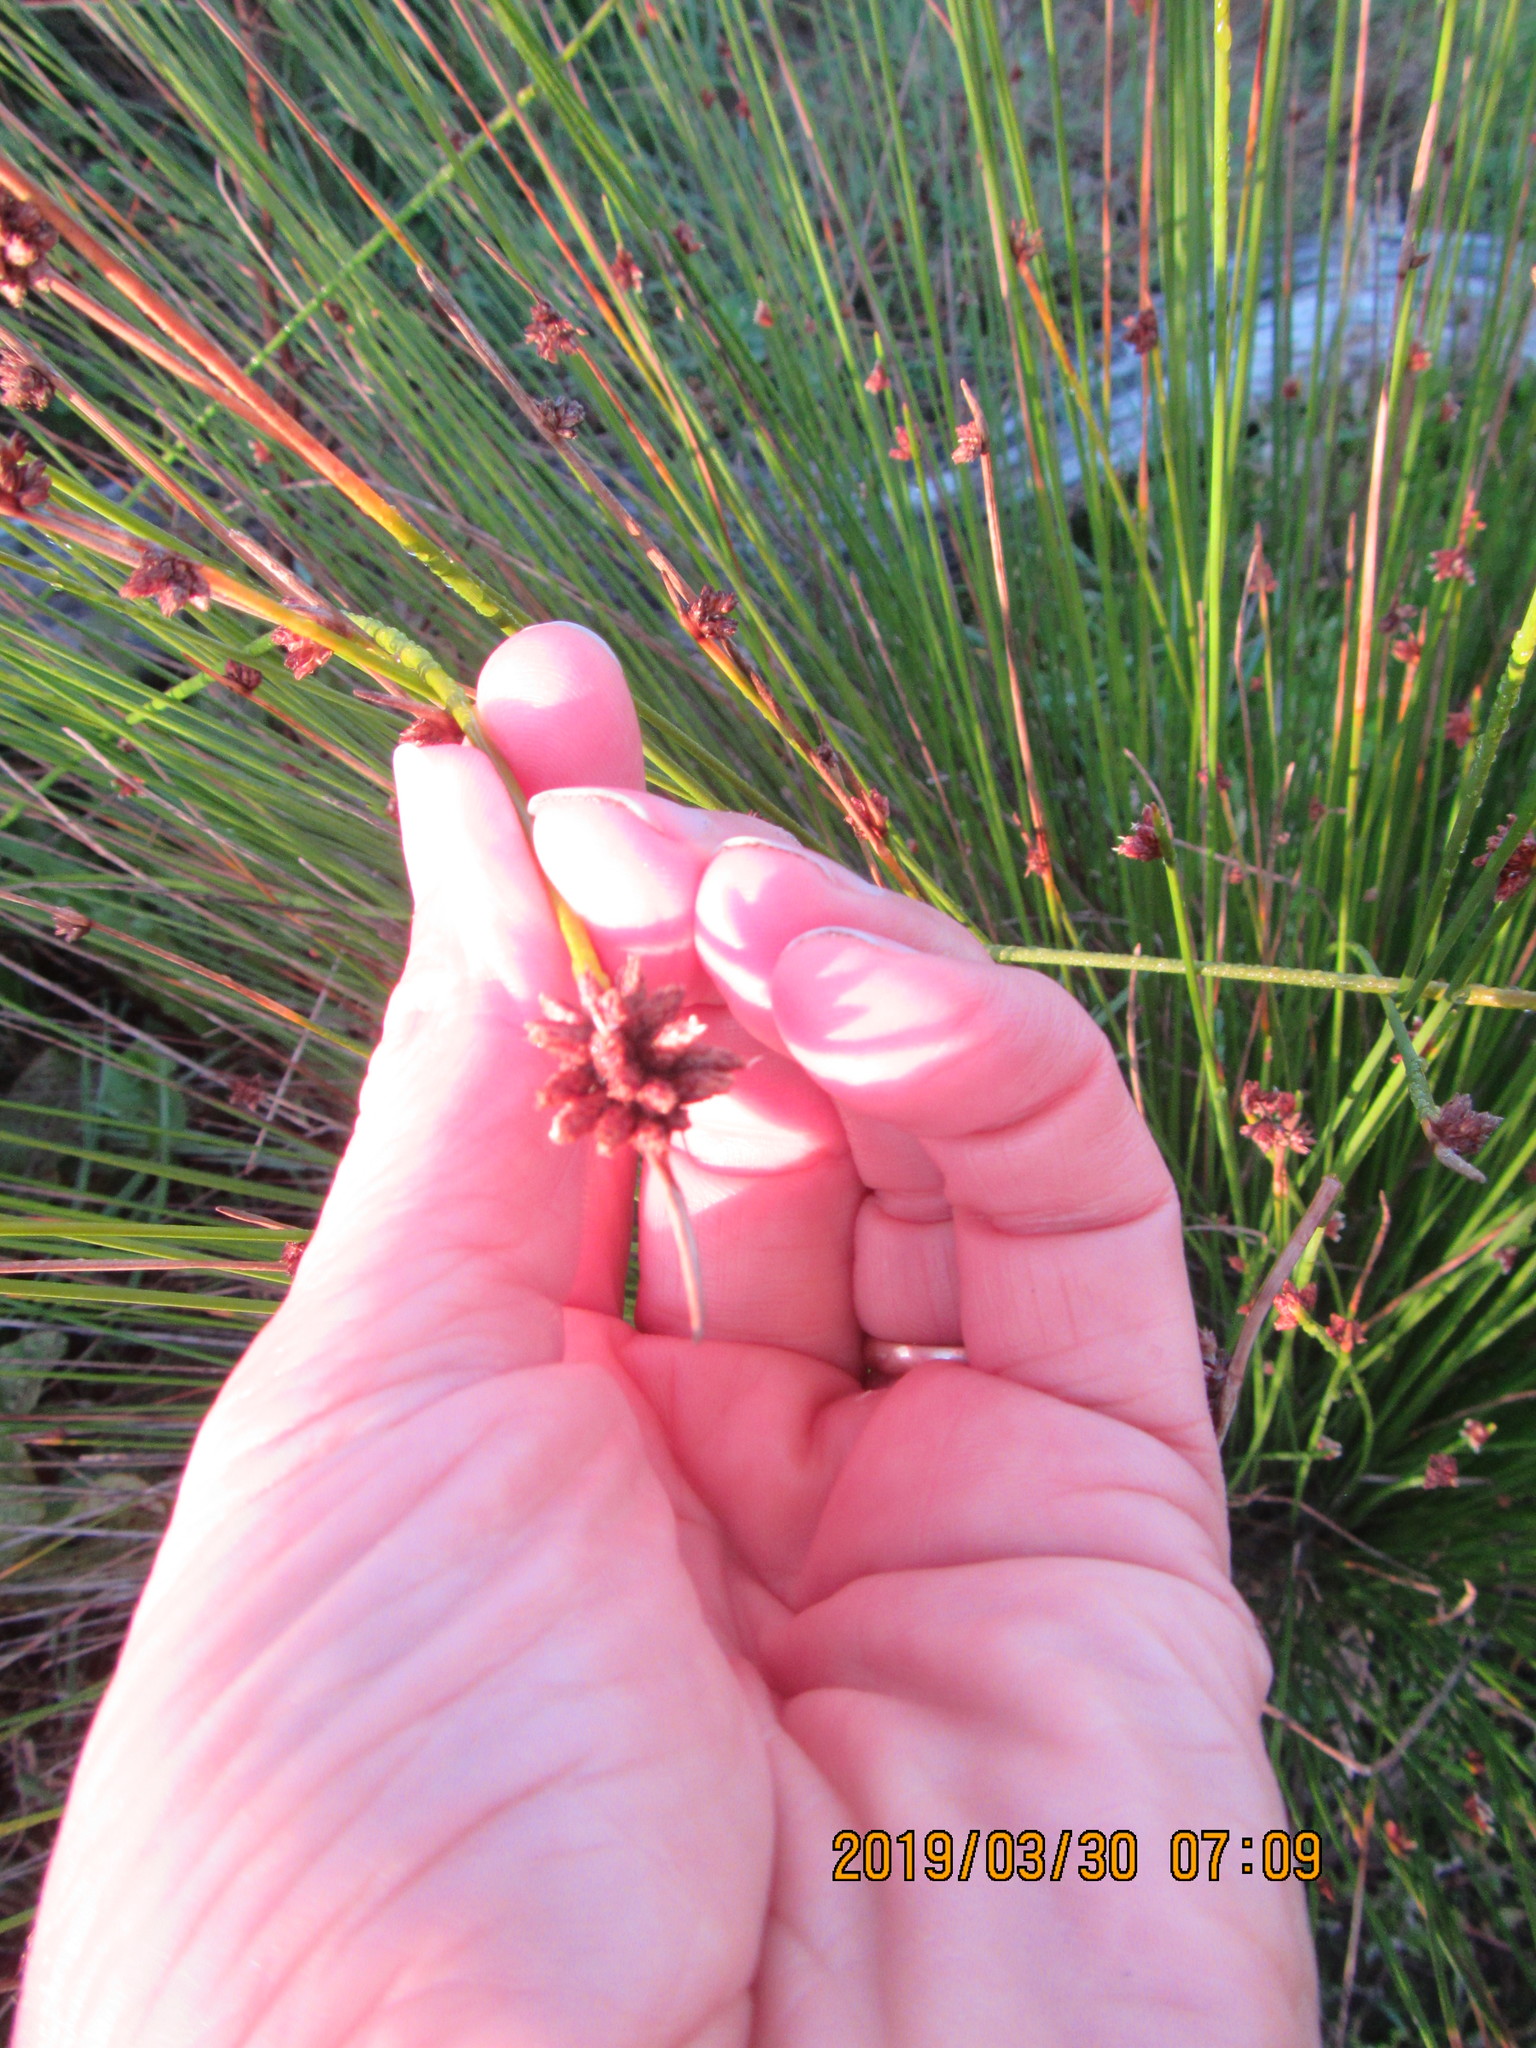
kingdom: Plantae
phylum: Tracheophyta
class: Liliopsida
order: Poales
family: Cyperaceae
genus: Ficinia
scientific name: Ficinia nodosa
